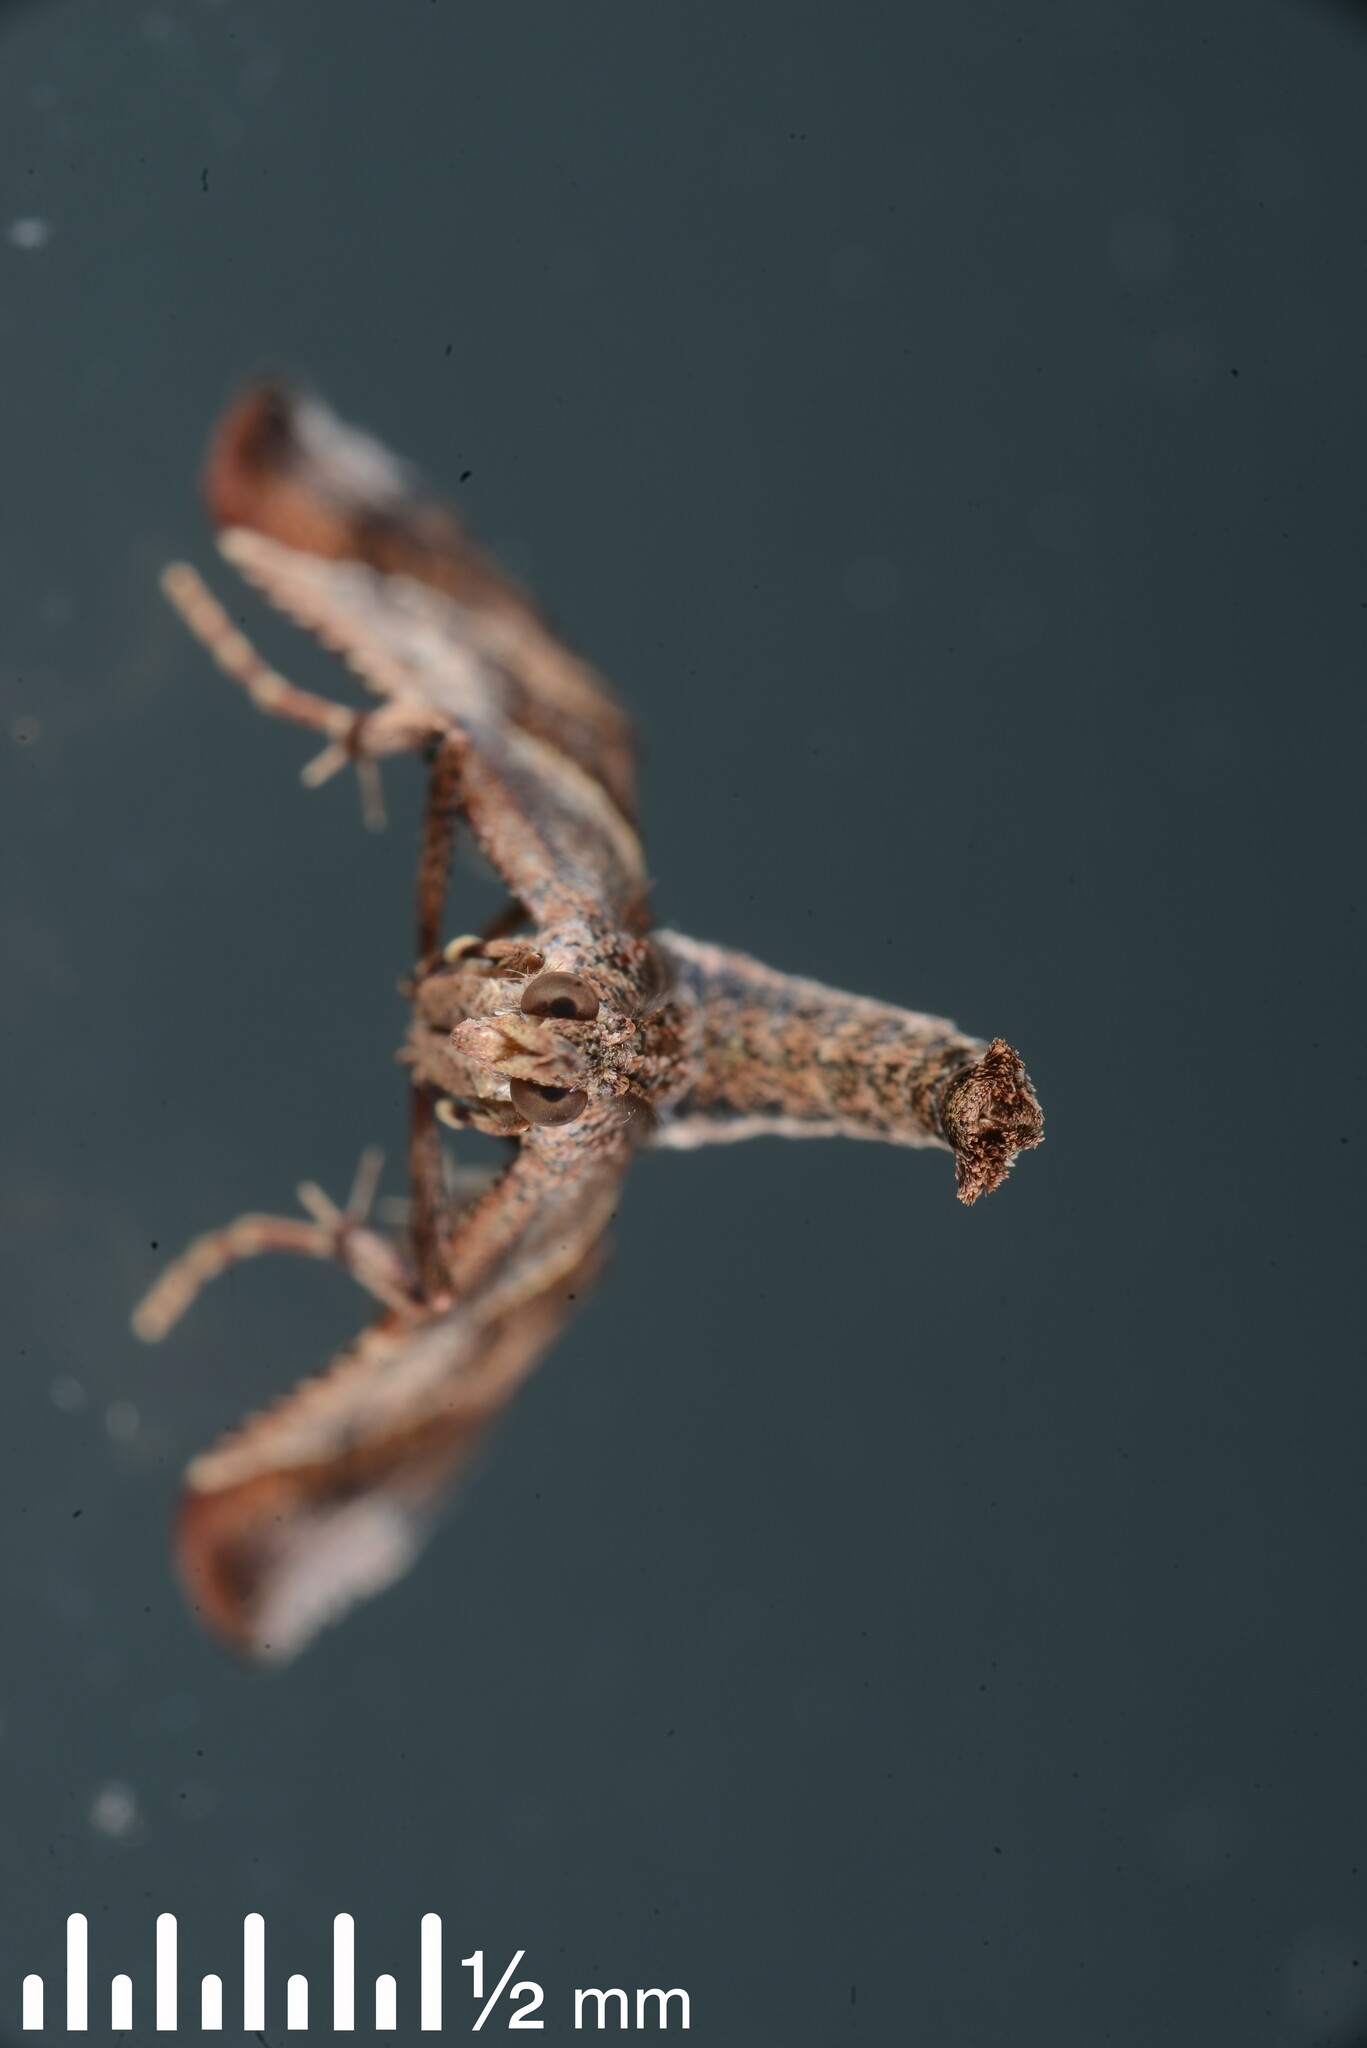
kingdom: Animalia
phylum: Arthropoda
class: Insecta
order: Lepidoptera
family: Pyralidae
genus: Gauna
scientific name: Gauna aegusalis
